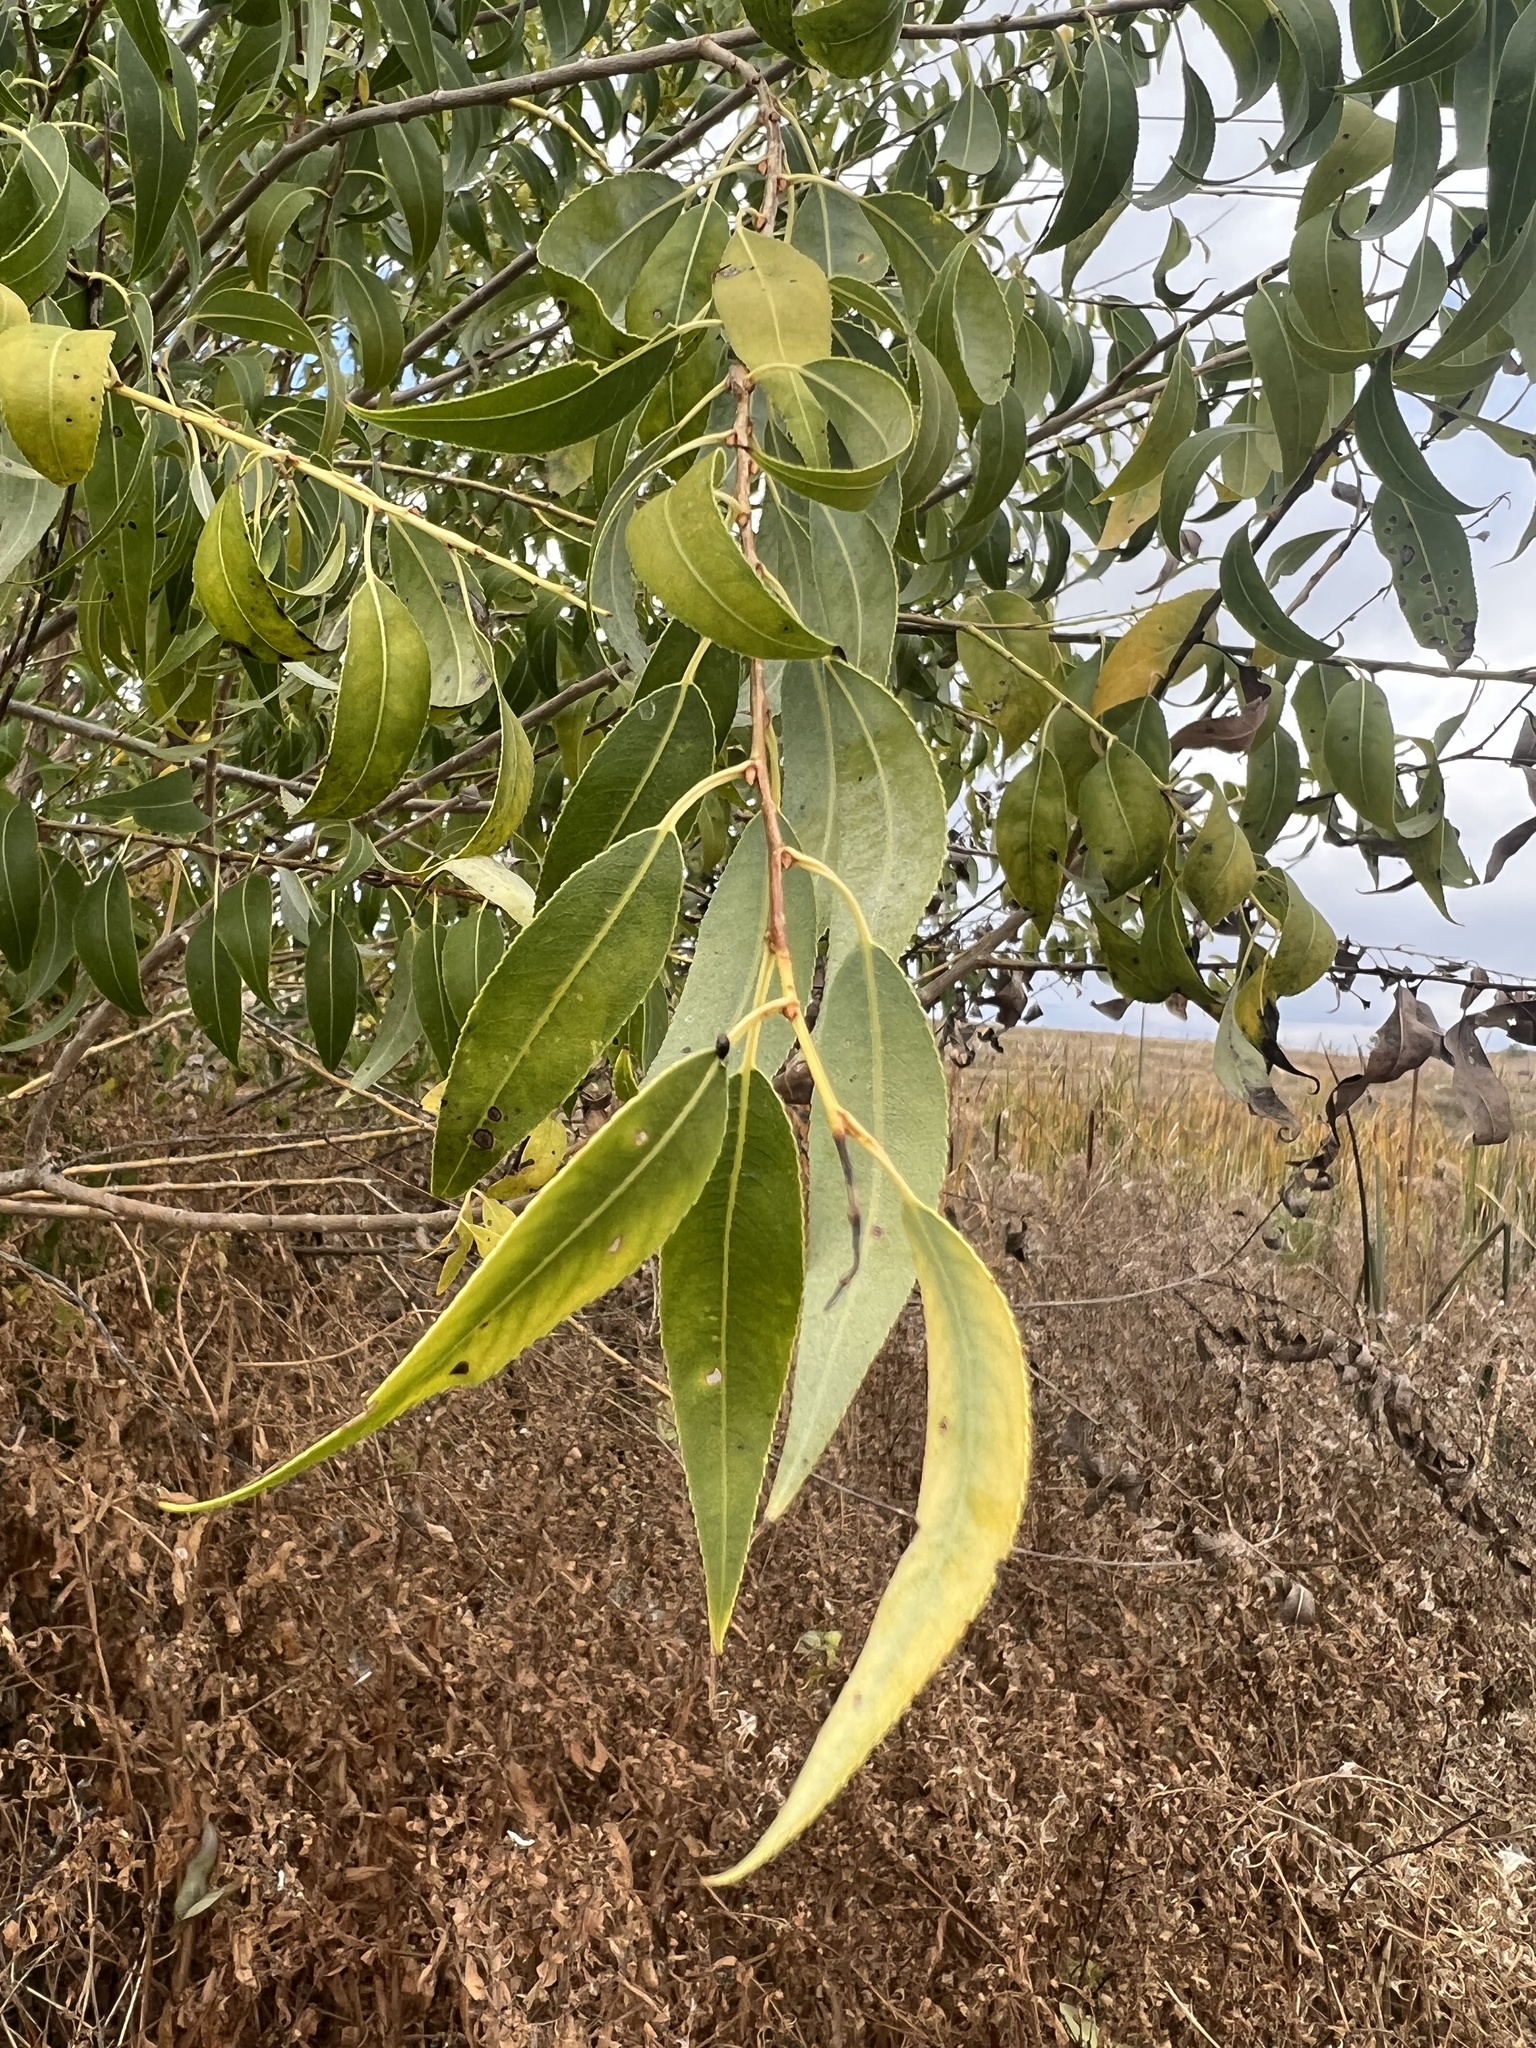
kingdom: Plantae
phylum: Tracheophyta
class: Magnoliopsida
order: Malpighiales
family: Salicaceae
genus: Salix
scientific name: Salix amygdaloides
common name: Peach leaf willow
